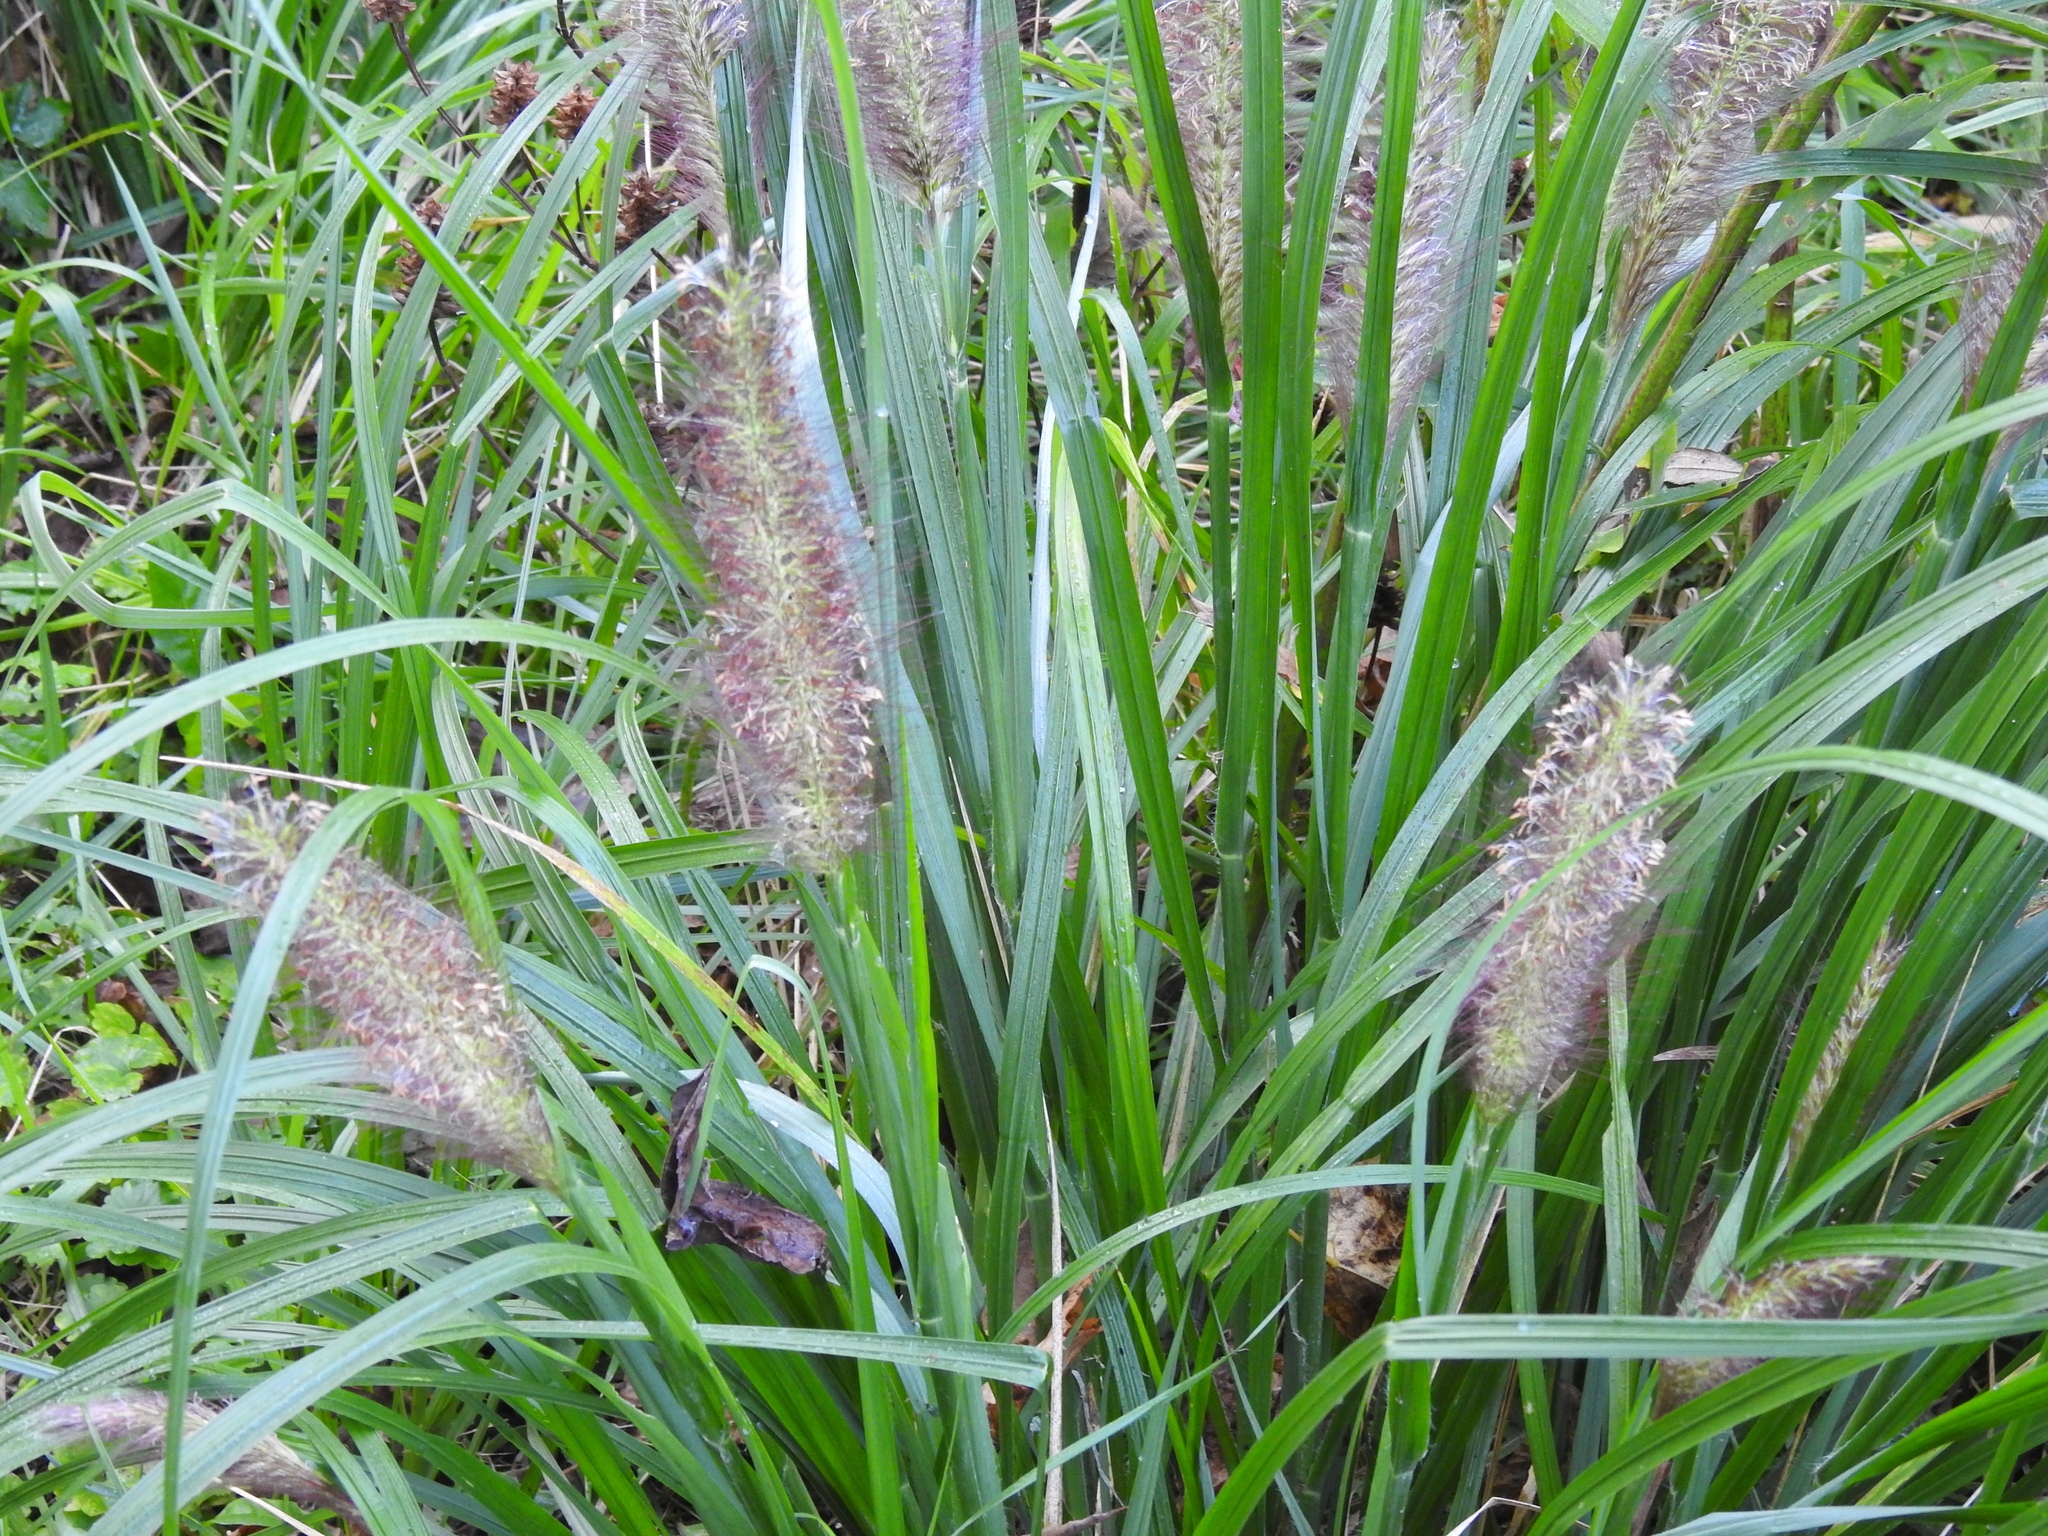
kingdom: Plantae
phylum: Tracheophyta
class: Liliopsida
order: Poales
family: Poaceae
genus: Cenchrus
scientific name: Cenchrus alopecuroides
